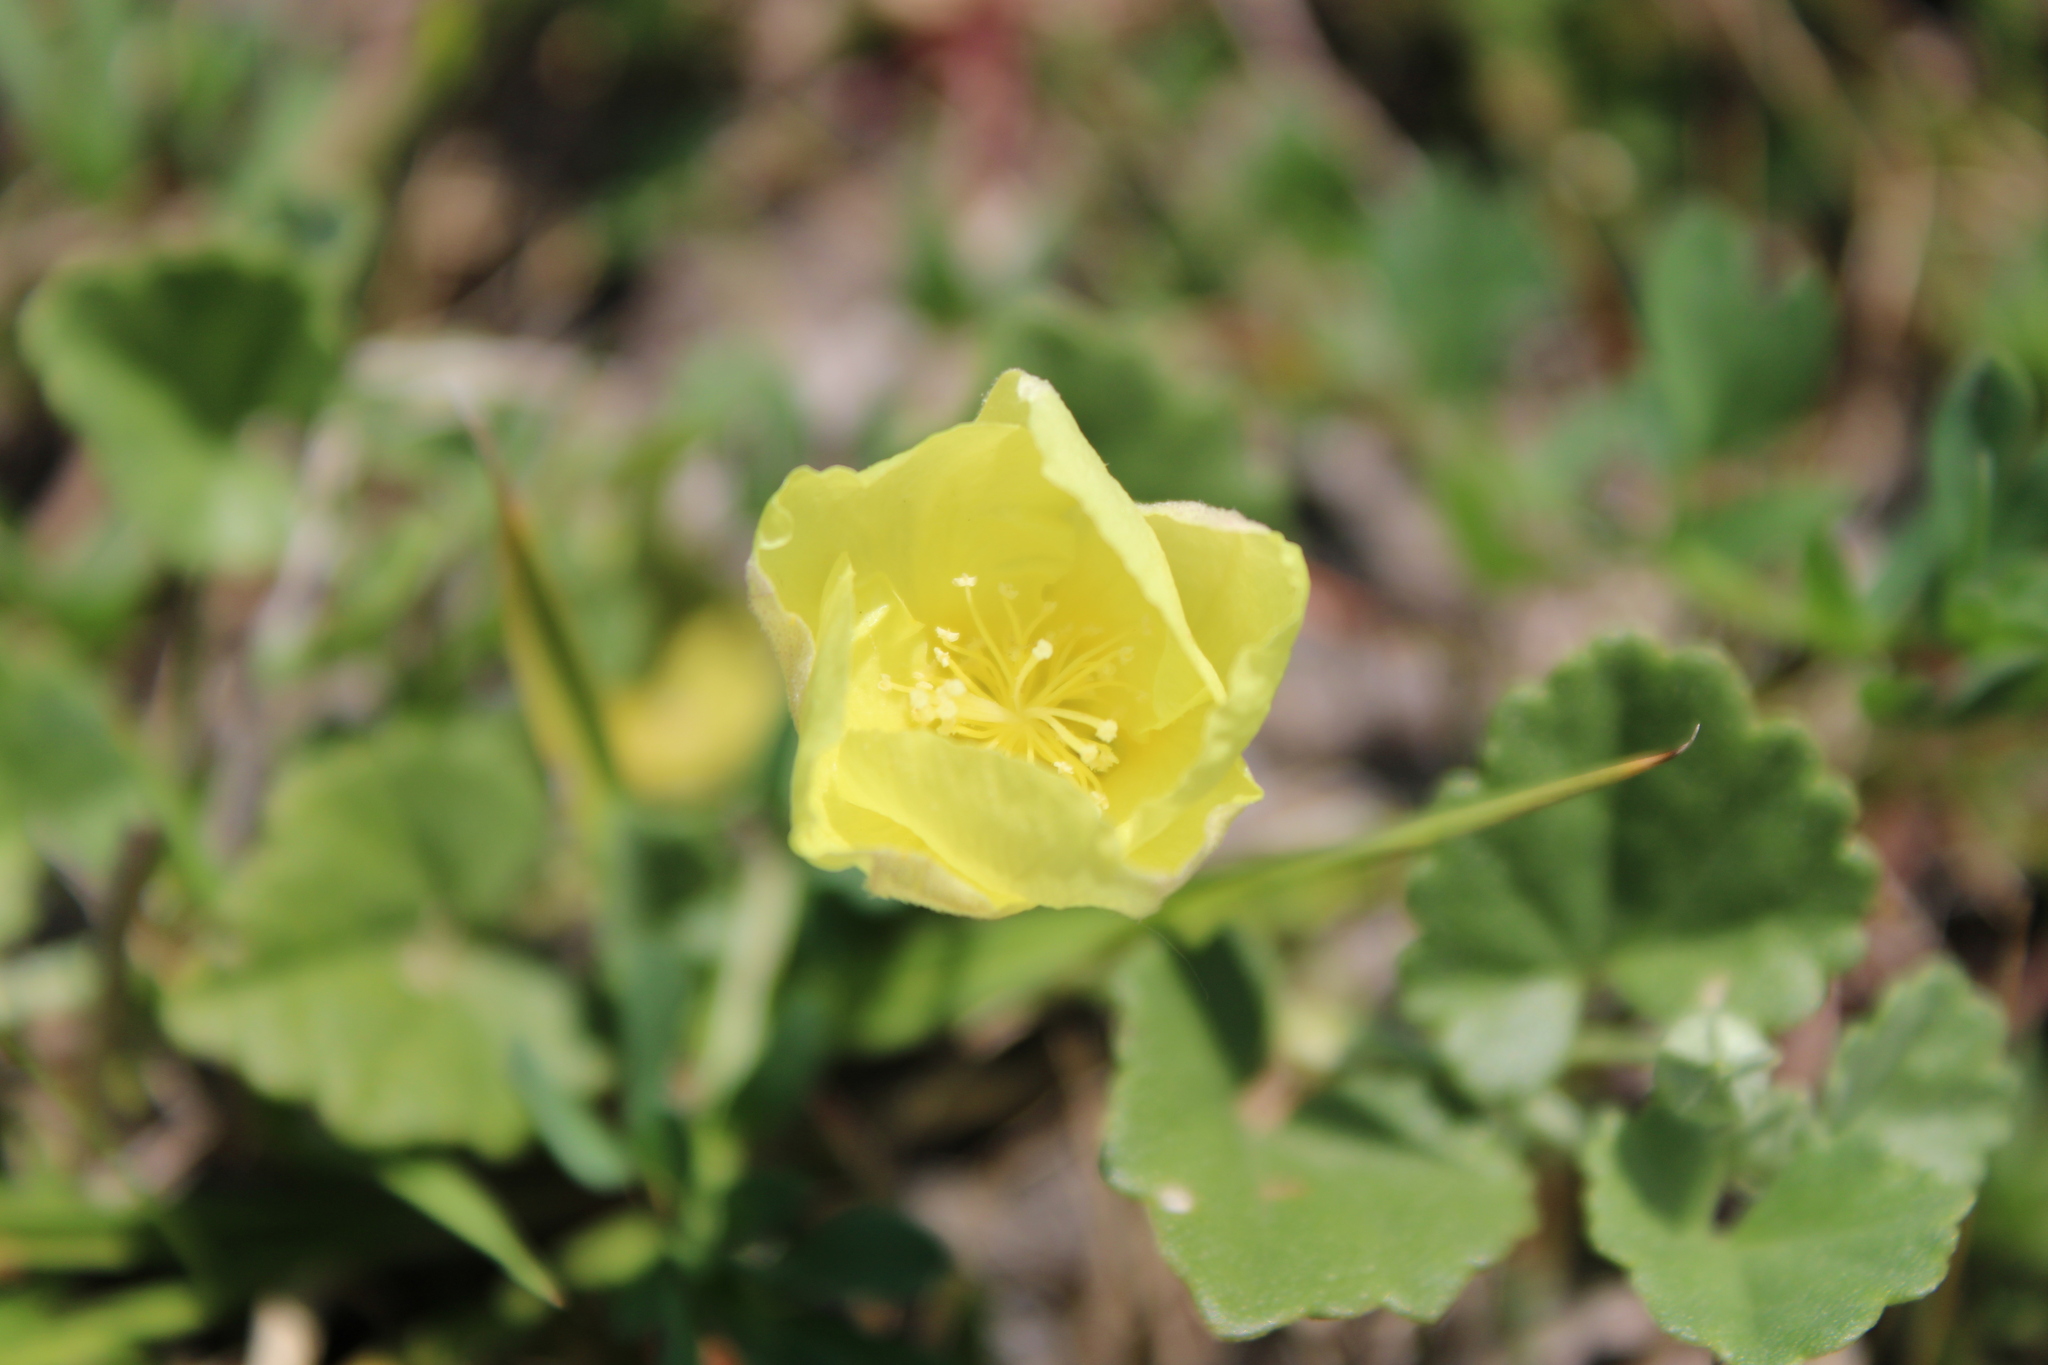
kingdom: Plantae
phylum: Tracheophyta
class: Magnoliopsida
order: Malvales
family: Malvaceae
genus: Malvella
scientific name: Malvella leprosa
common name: Alkali-mallow
